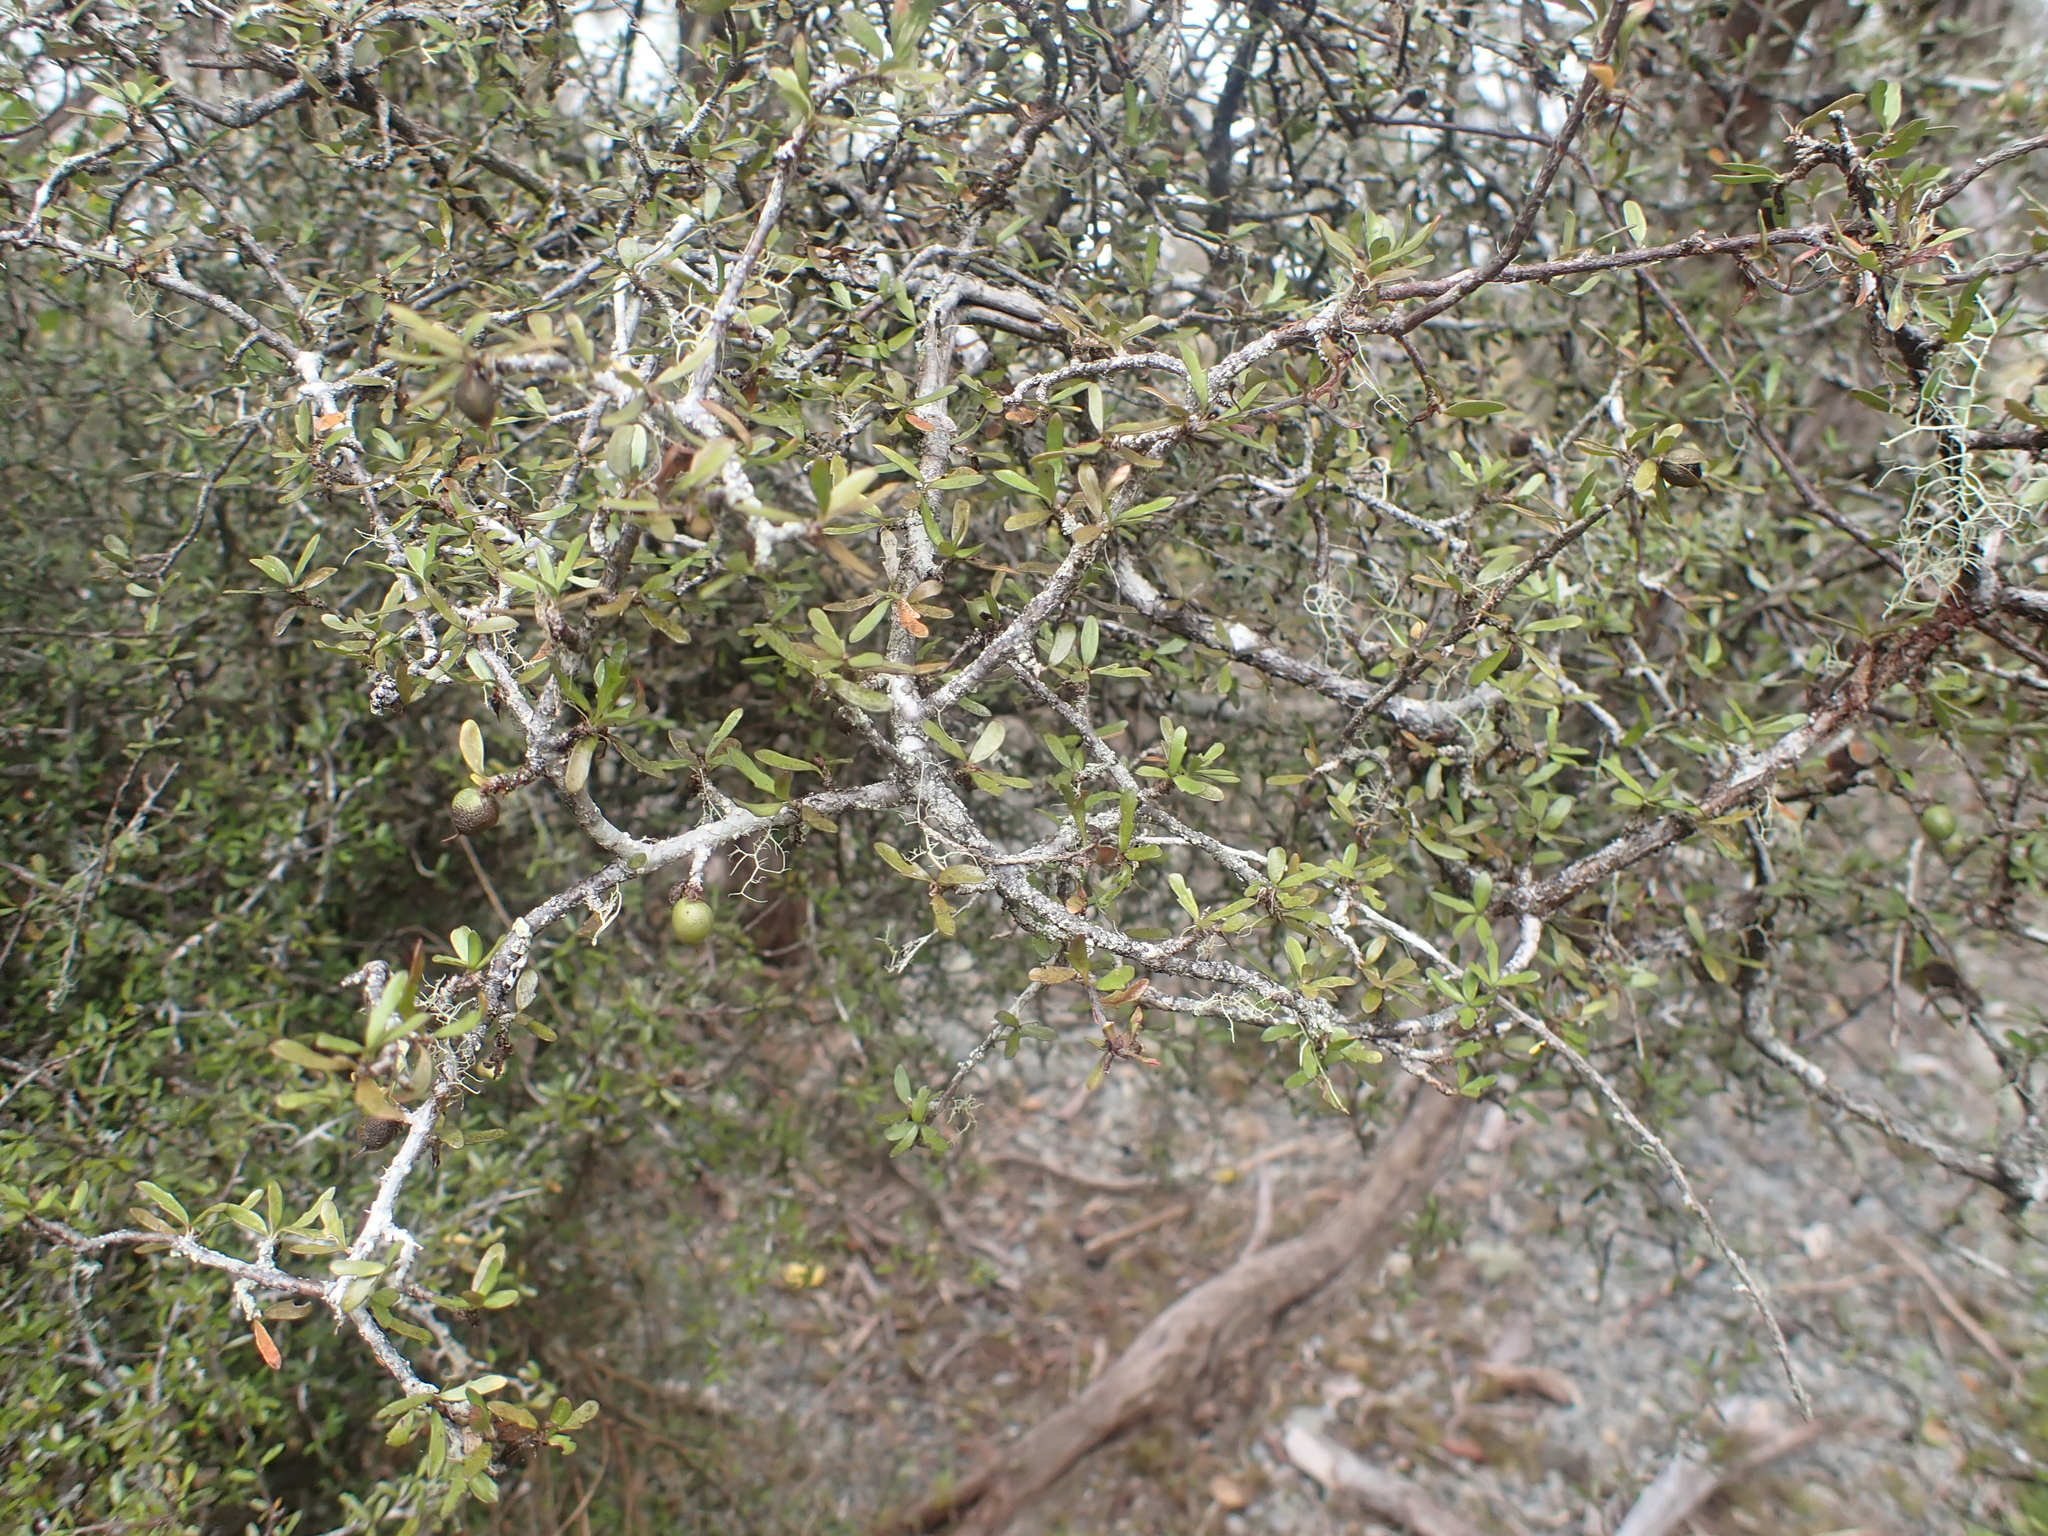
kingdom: Plantae
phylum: Tracheophyta
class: Magnoliopsida
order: Apiales
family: Pittosporaceae
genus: Pittosporum
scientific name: Pittosporum divaricatum
